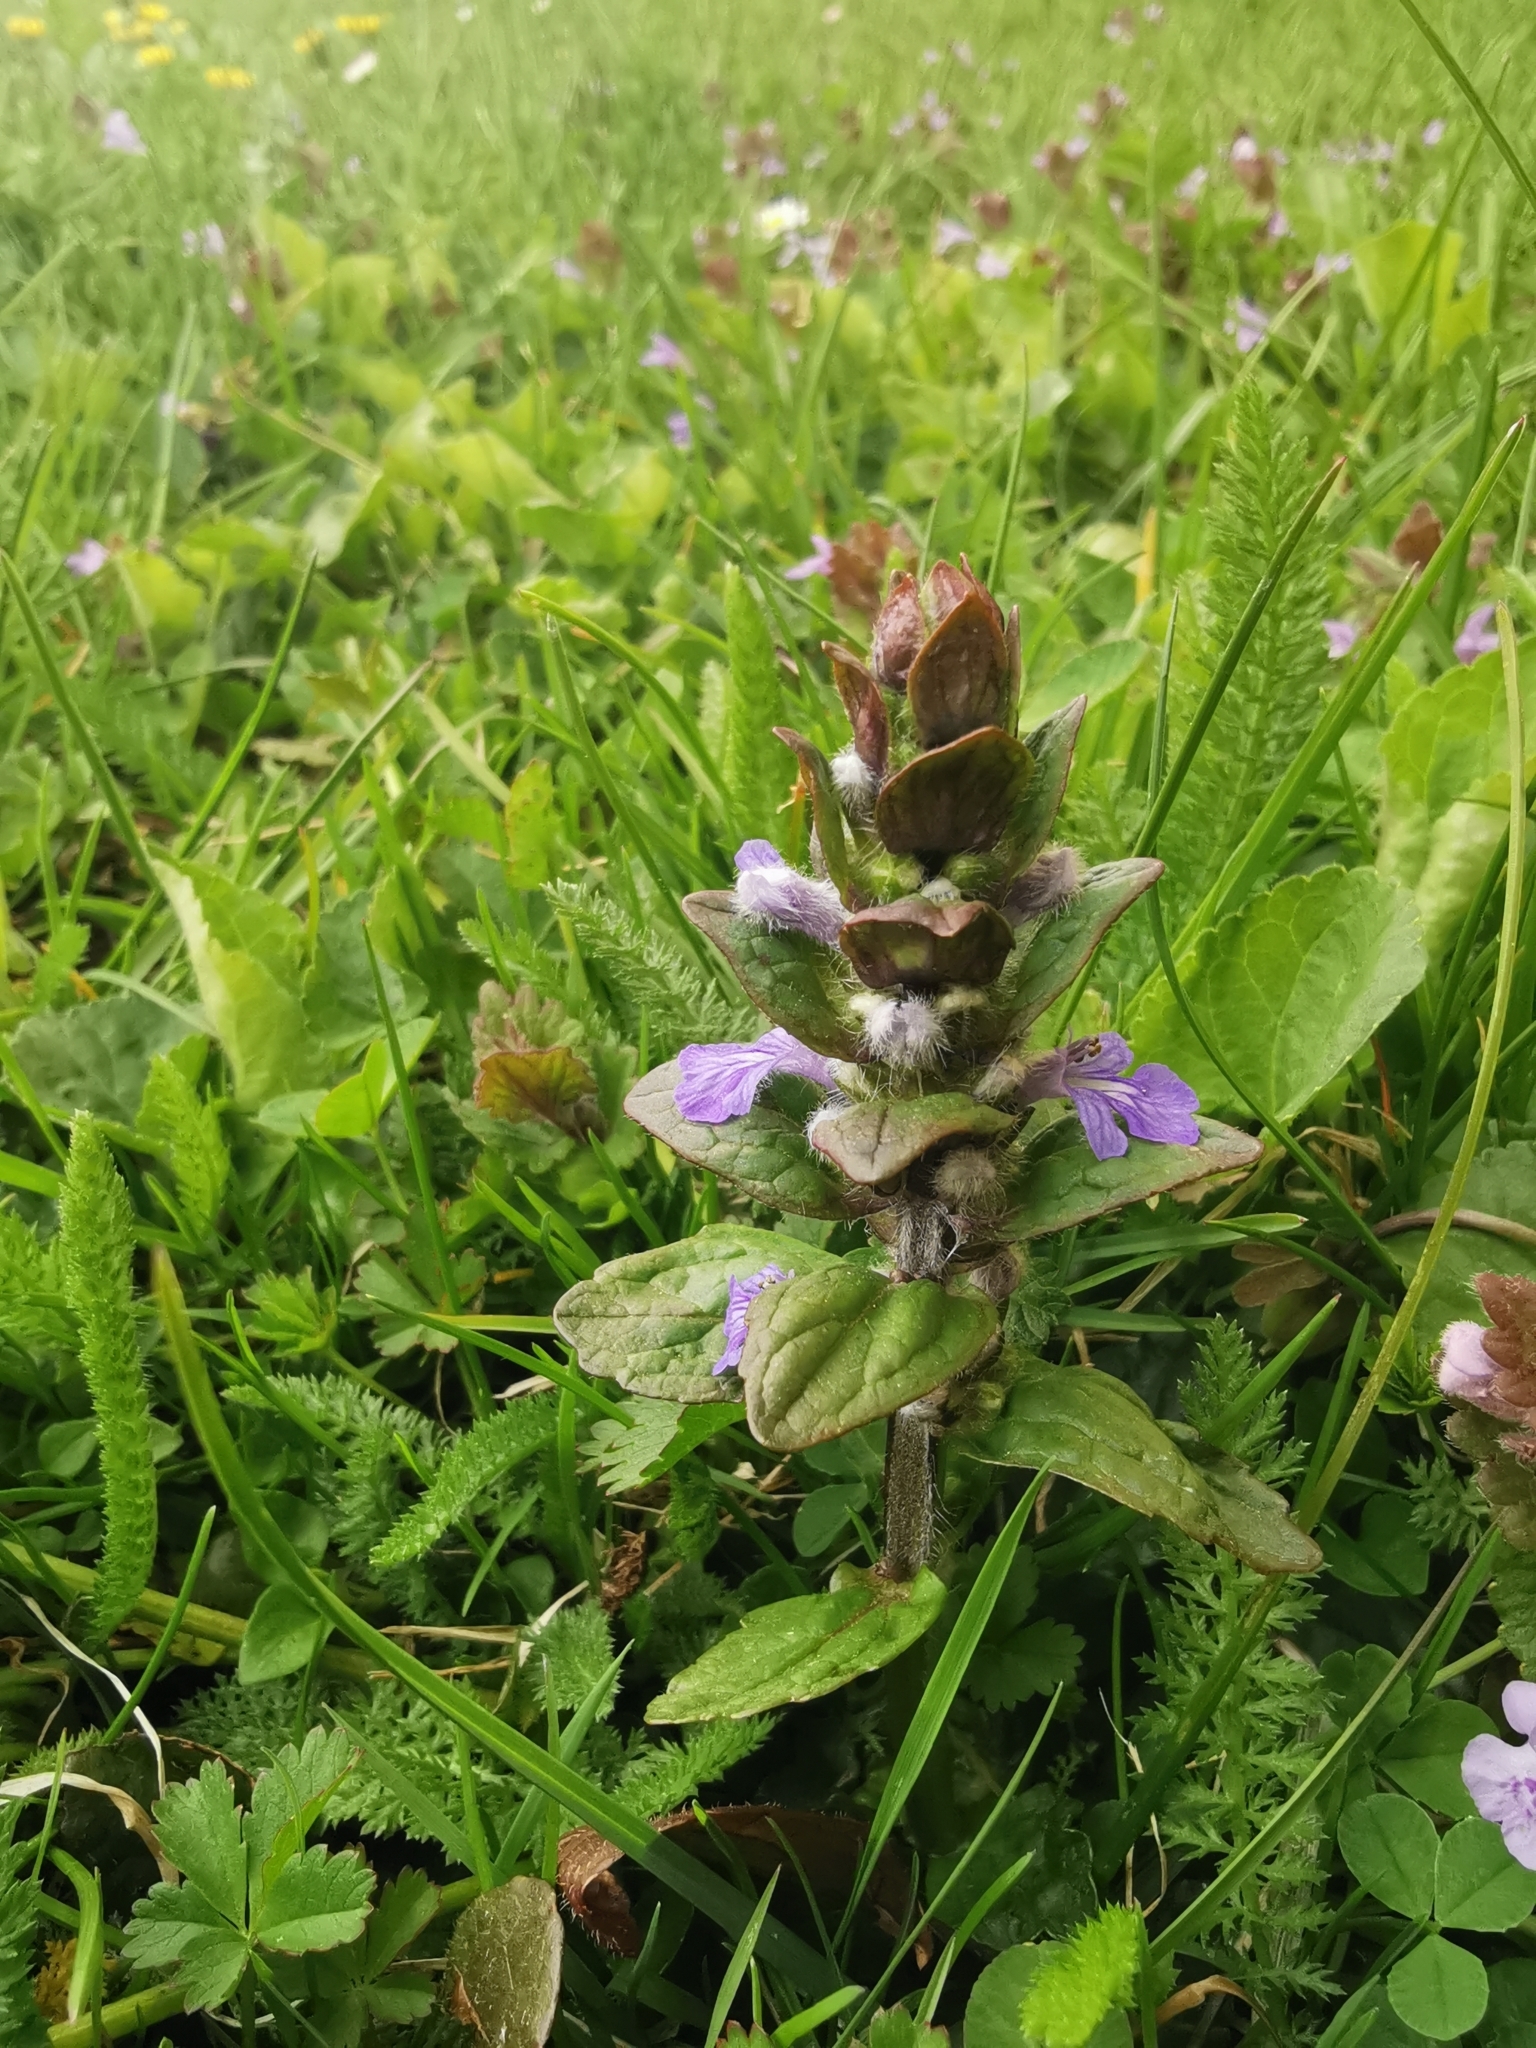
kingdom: Plantae
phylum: Tracheophyta
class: Magnoliopsida
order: Lamiales
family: Lamiaceae
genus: Ajuga
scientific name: Ajuga reptans
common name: Bugle
